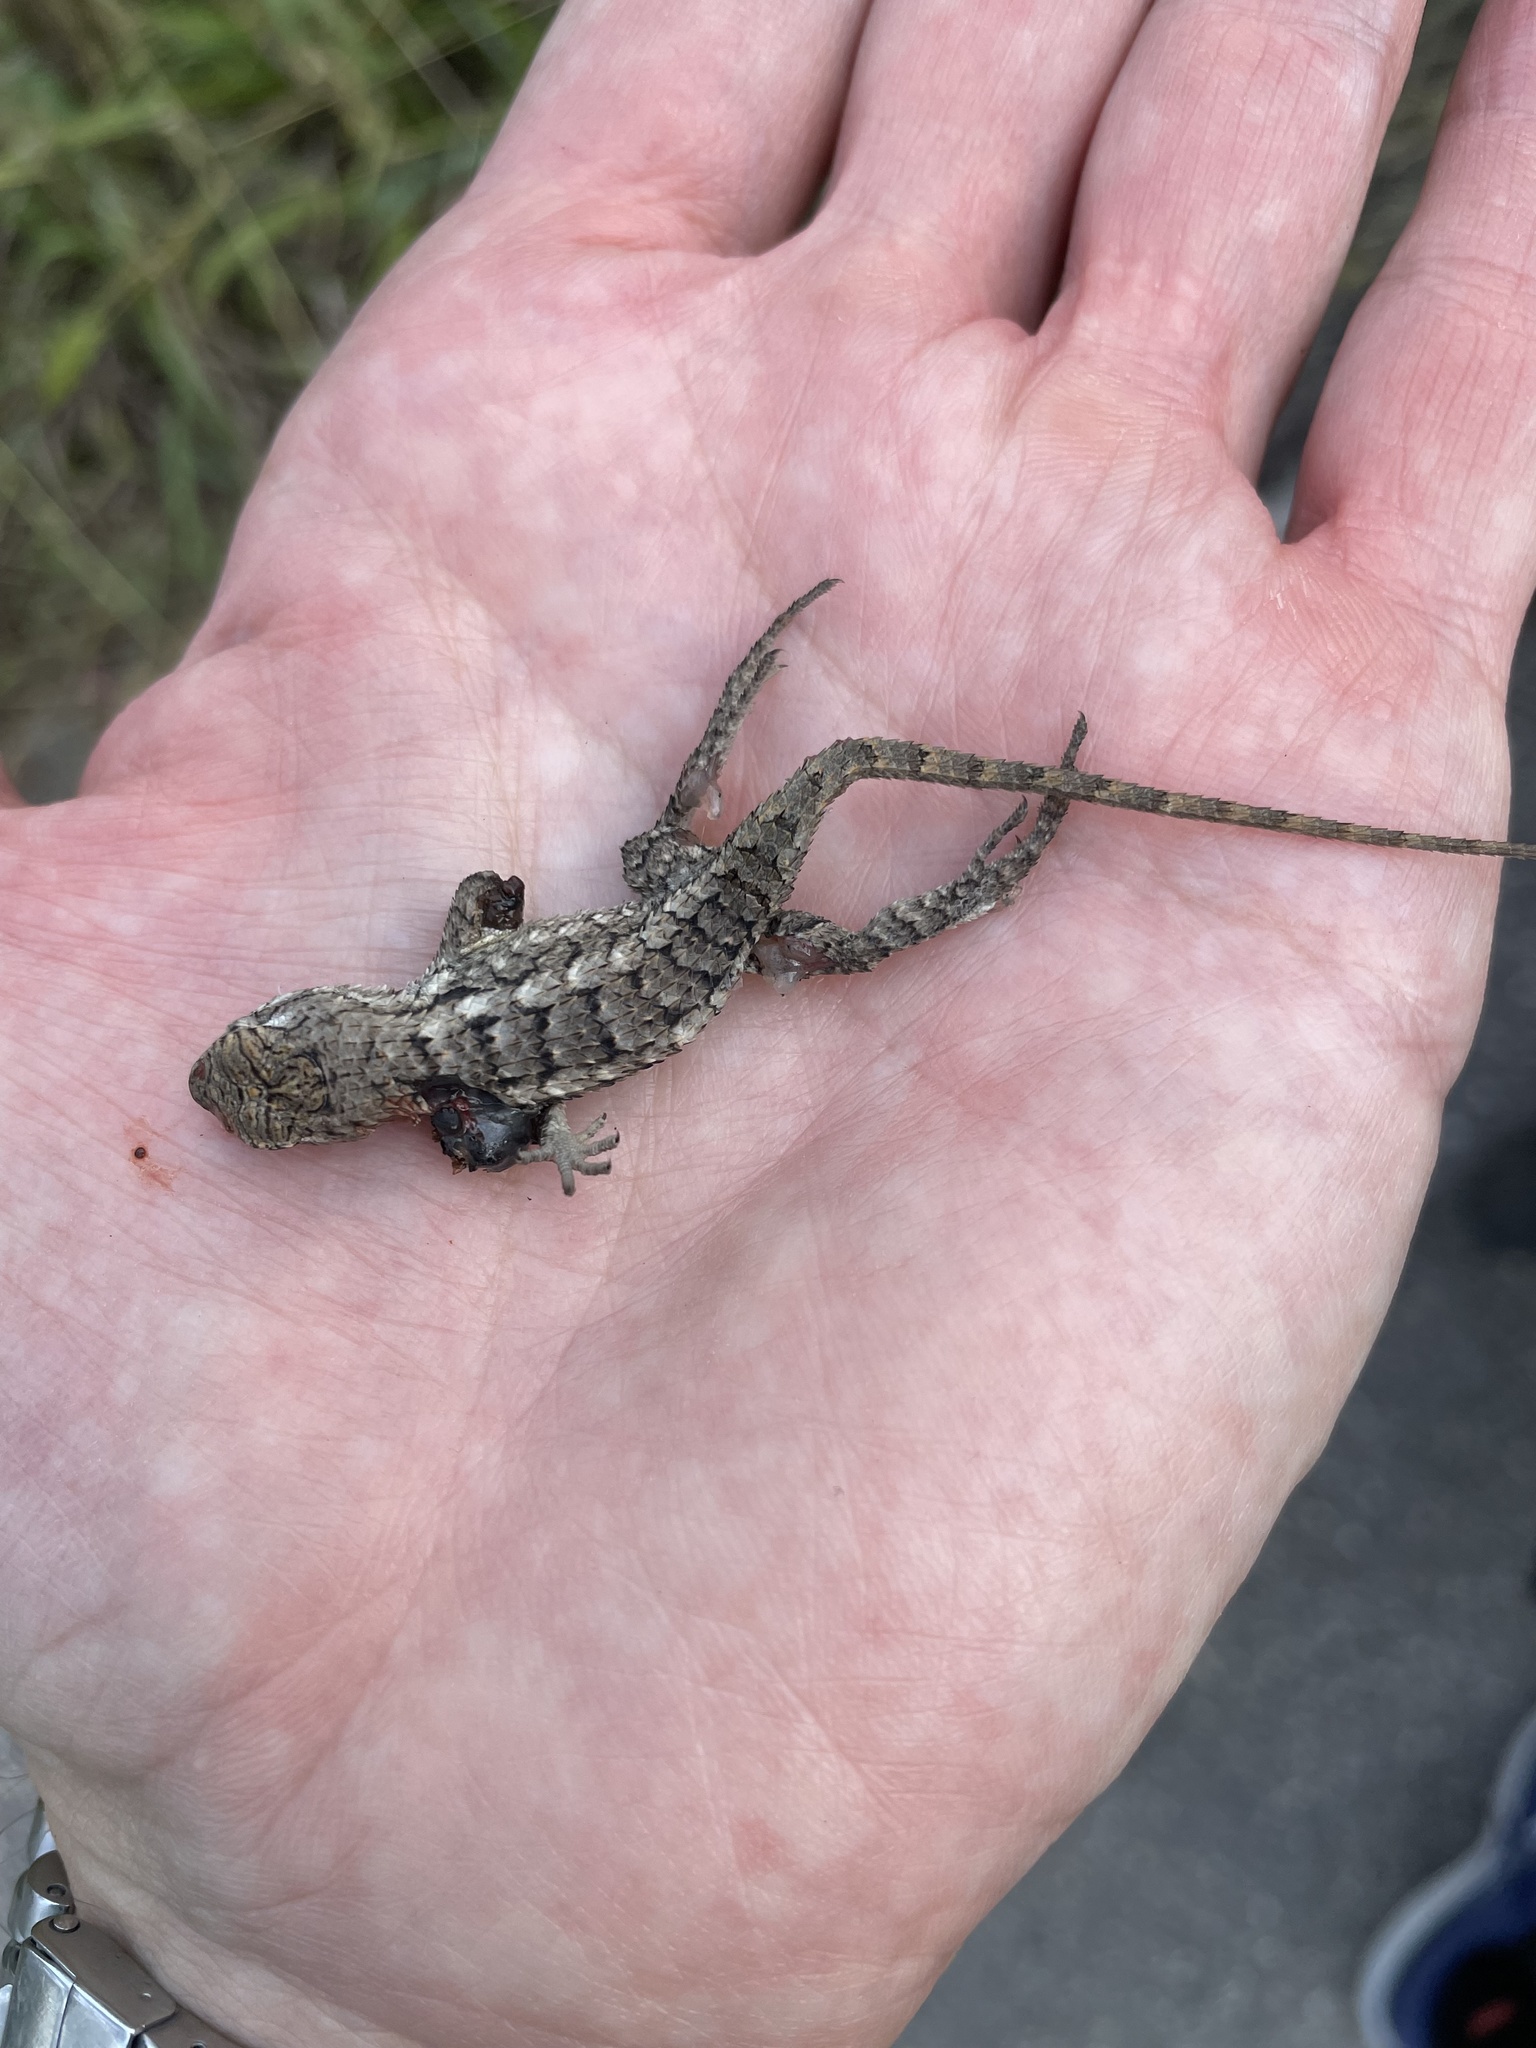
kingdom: Animalia
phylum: Chordata
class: Squamata
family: Phrynosomatidae
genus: Sceloporus
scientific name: Sceloporus olivaceus
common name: Texas spiny lizard
